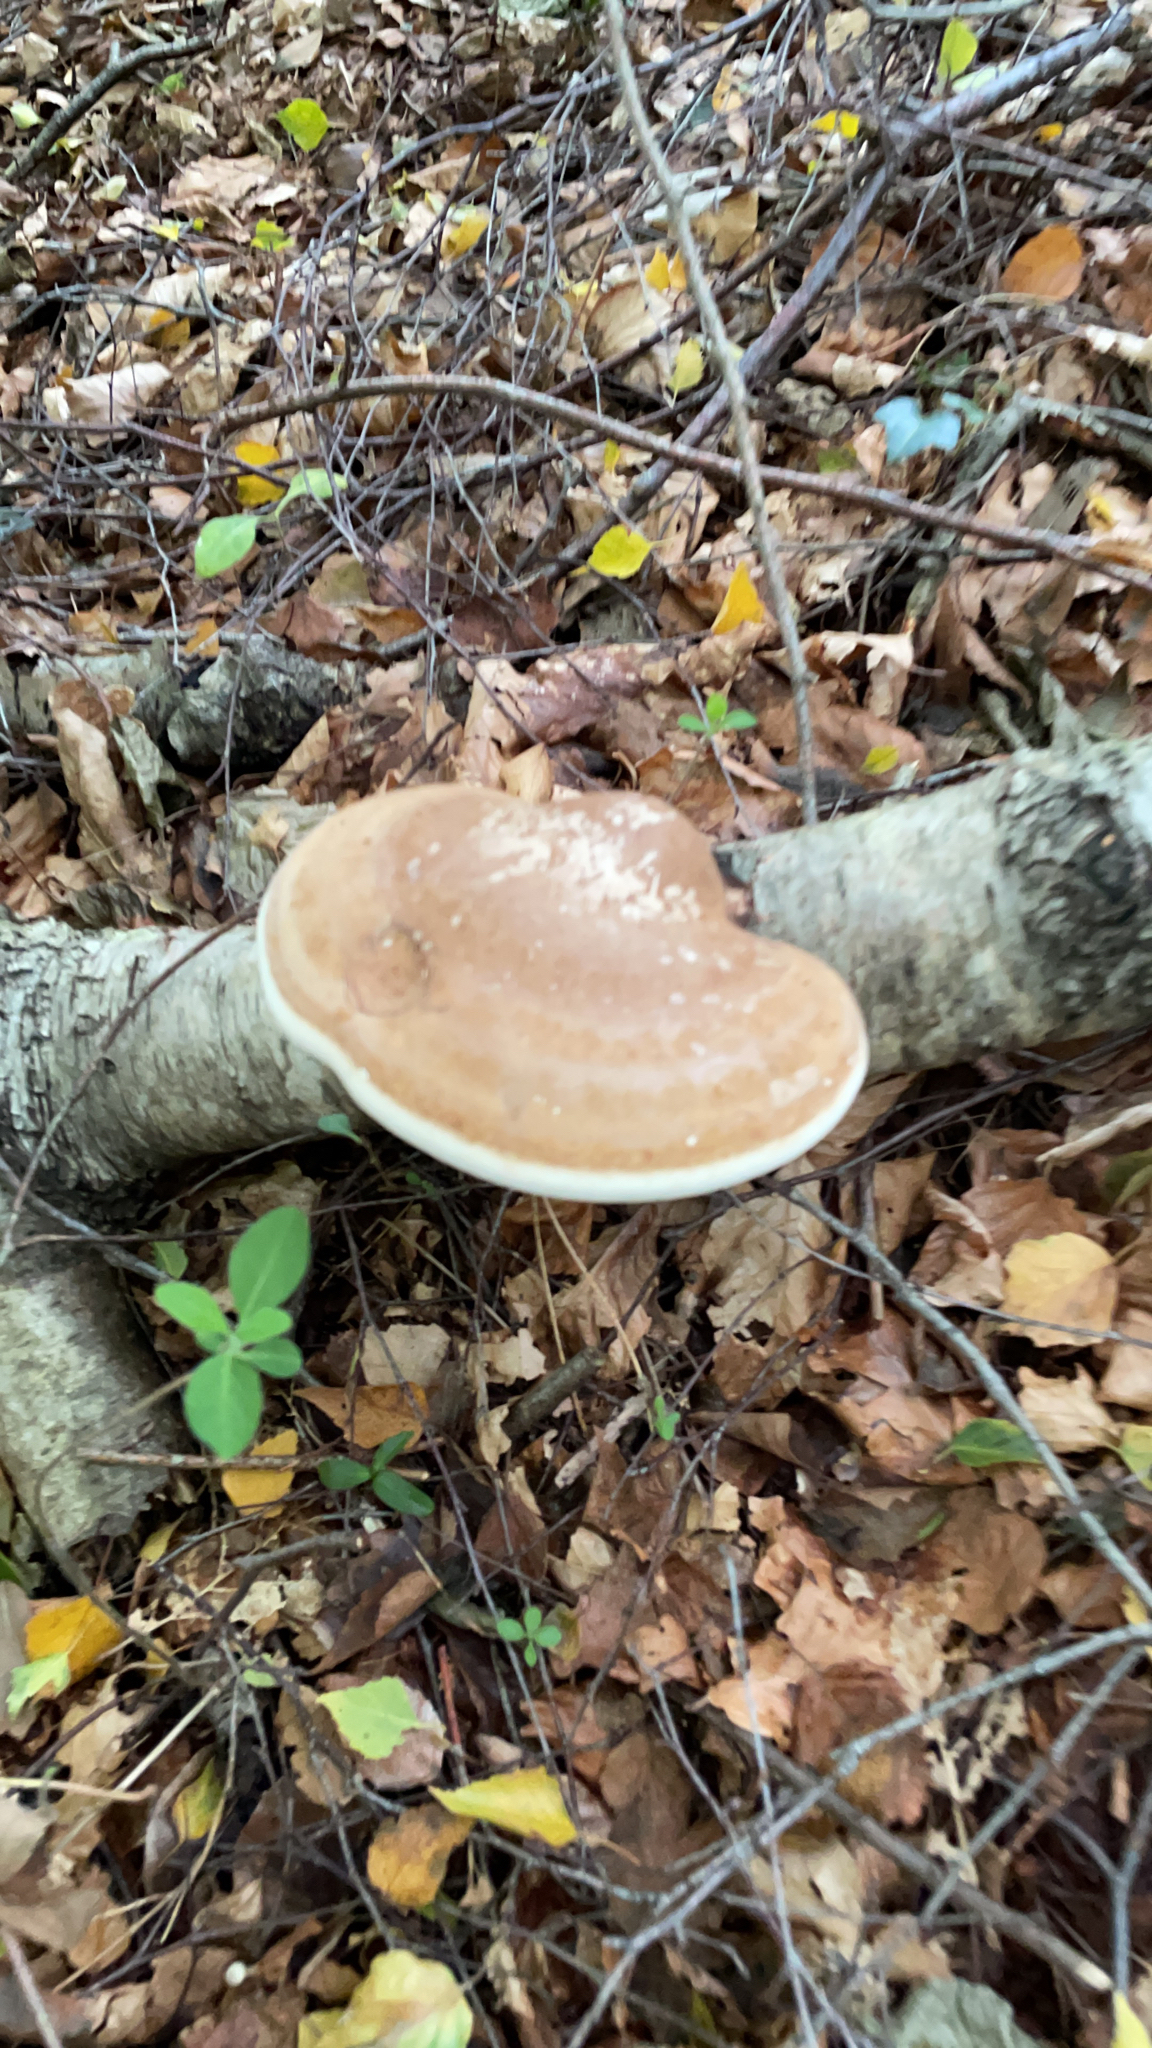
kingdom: Fungi
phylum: Basidiomycota
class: Agaricomycetes
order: Polyporales
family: Fomitopsidaceae
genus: Fomitopsis
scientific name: Fomitopsis betulina
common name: Birch polypore
